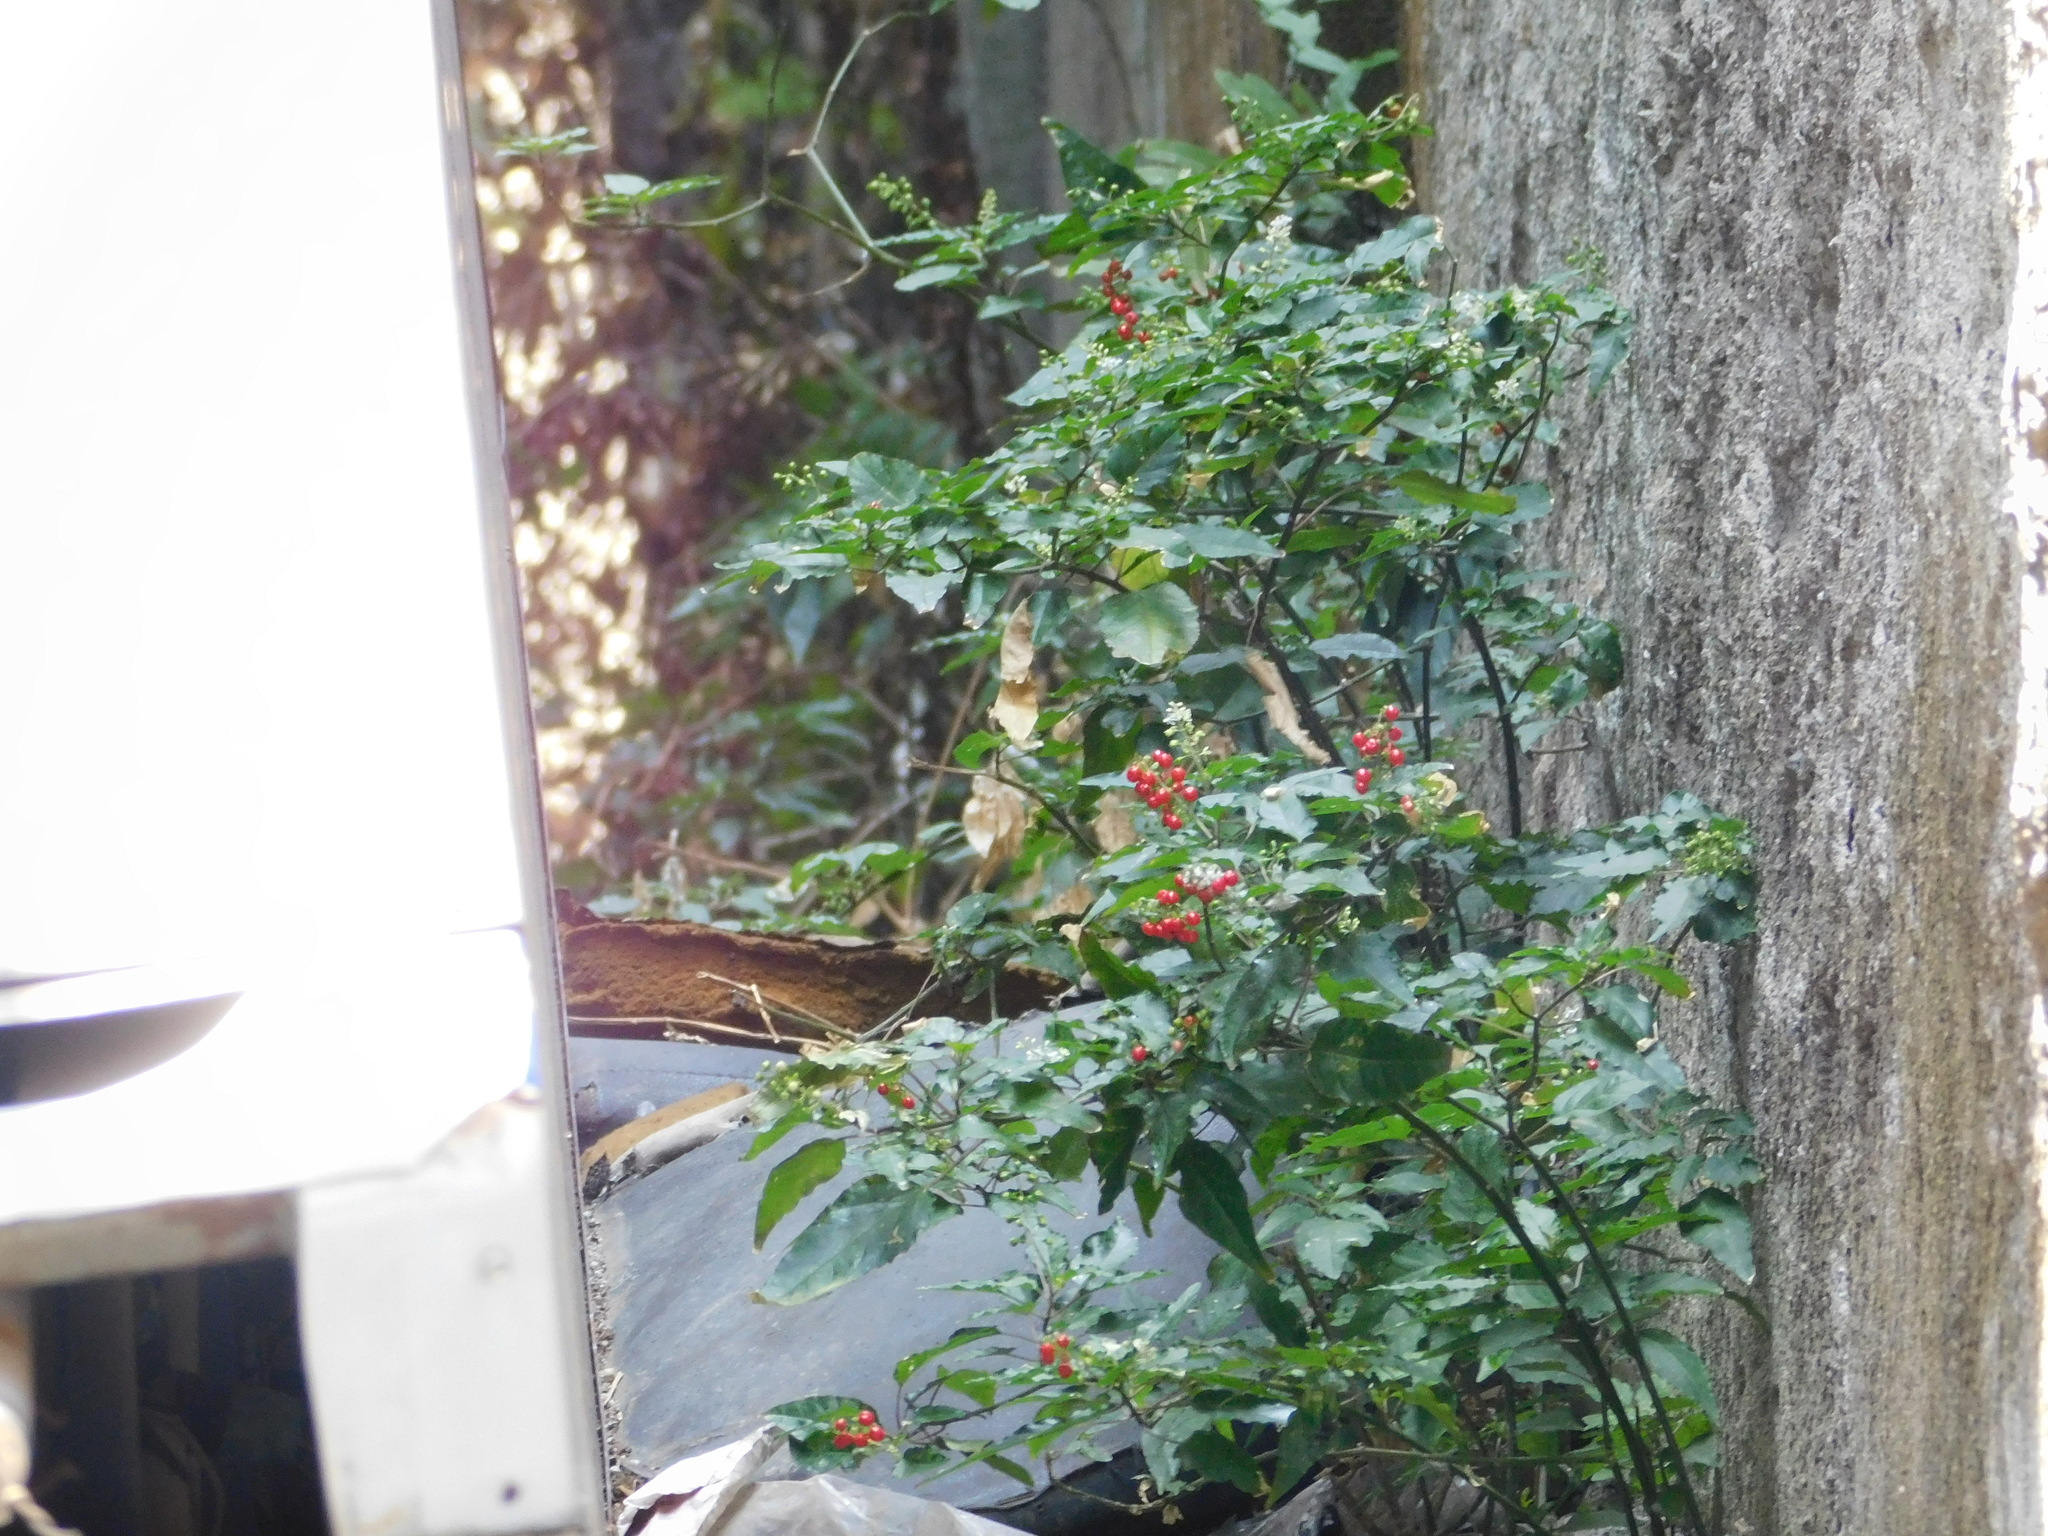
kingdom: Plantae
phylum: Tracheophyta
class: Magnoliopsida
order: Caryophyllales
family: Phytolaccaceae
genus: Rivina
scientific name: Rivina humilis
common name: Rougeplant
